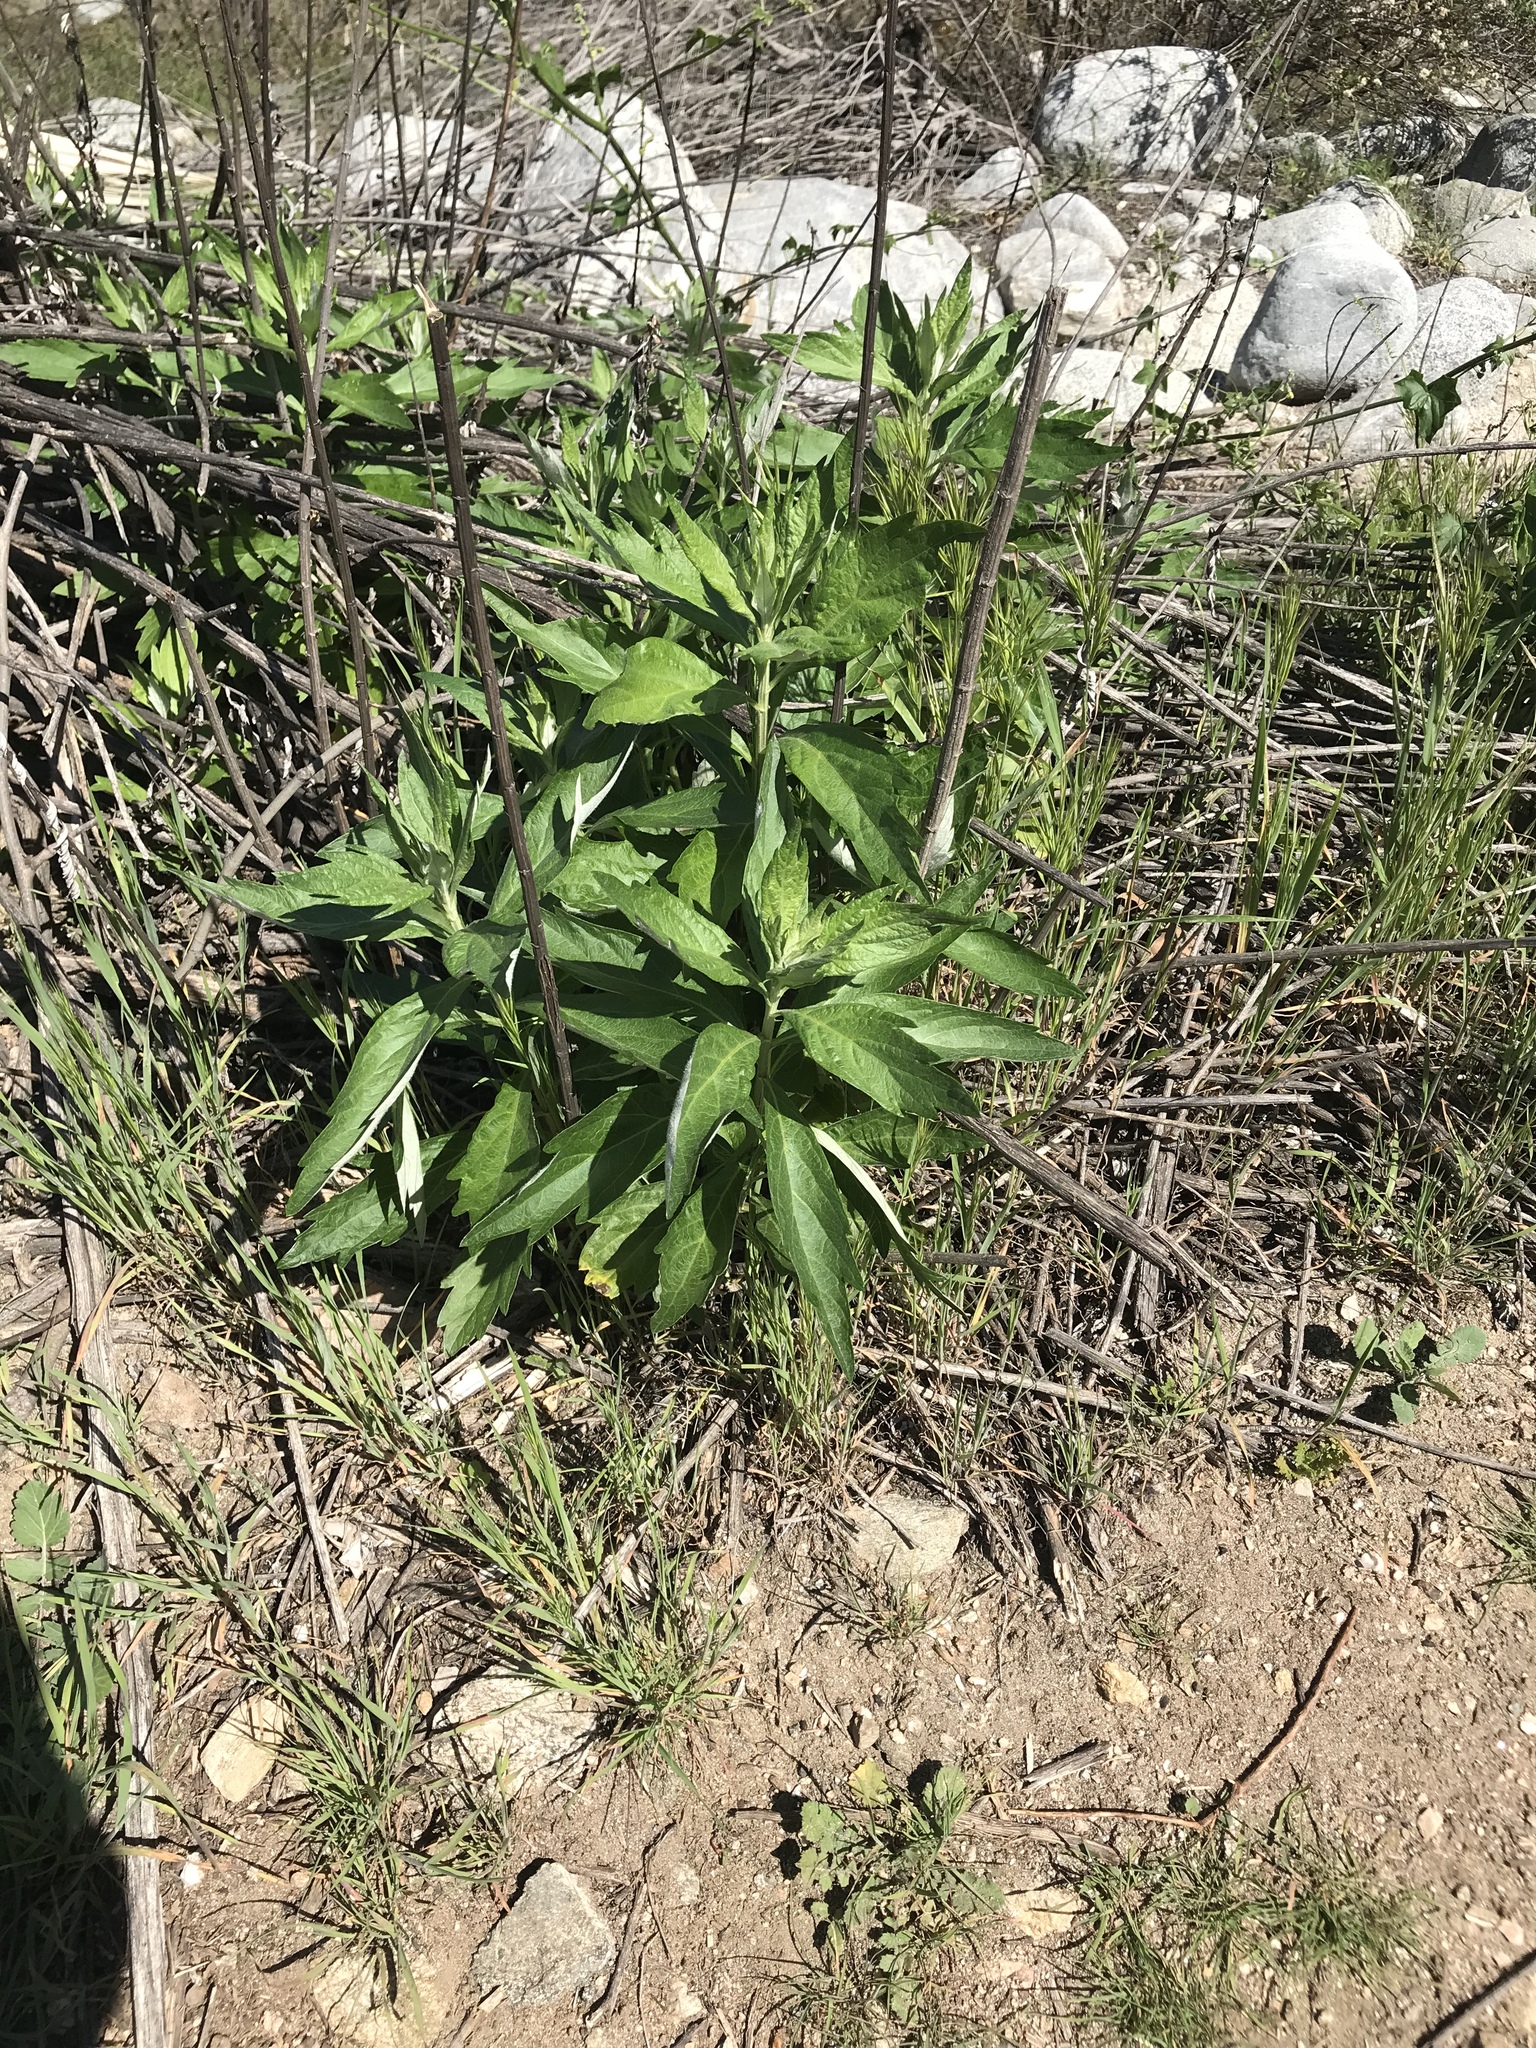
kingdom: Plantae
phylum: Tracheophyta
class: Magnoliopsida
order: Asterales
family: Asteraceae
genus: Artemisia
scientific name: Artemisia douglasiana
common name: Northwest mugwort
